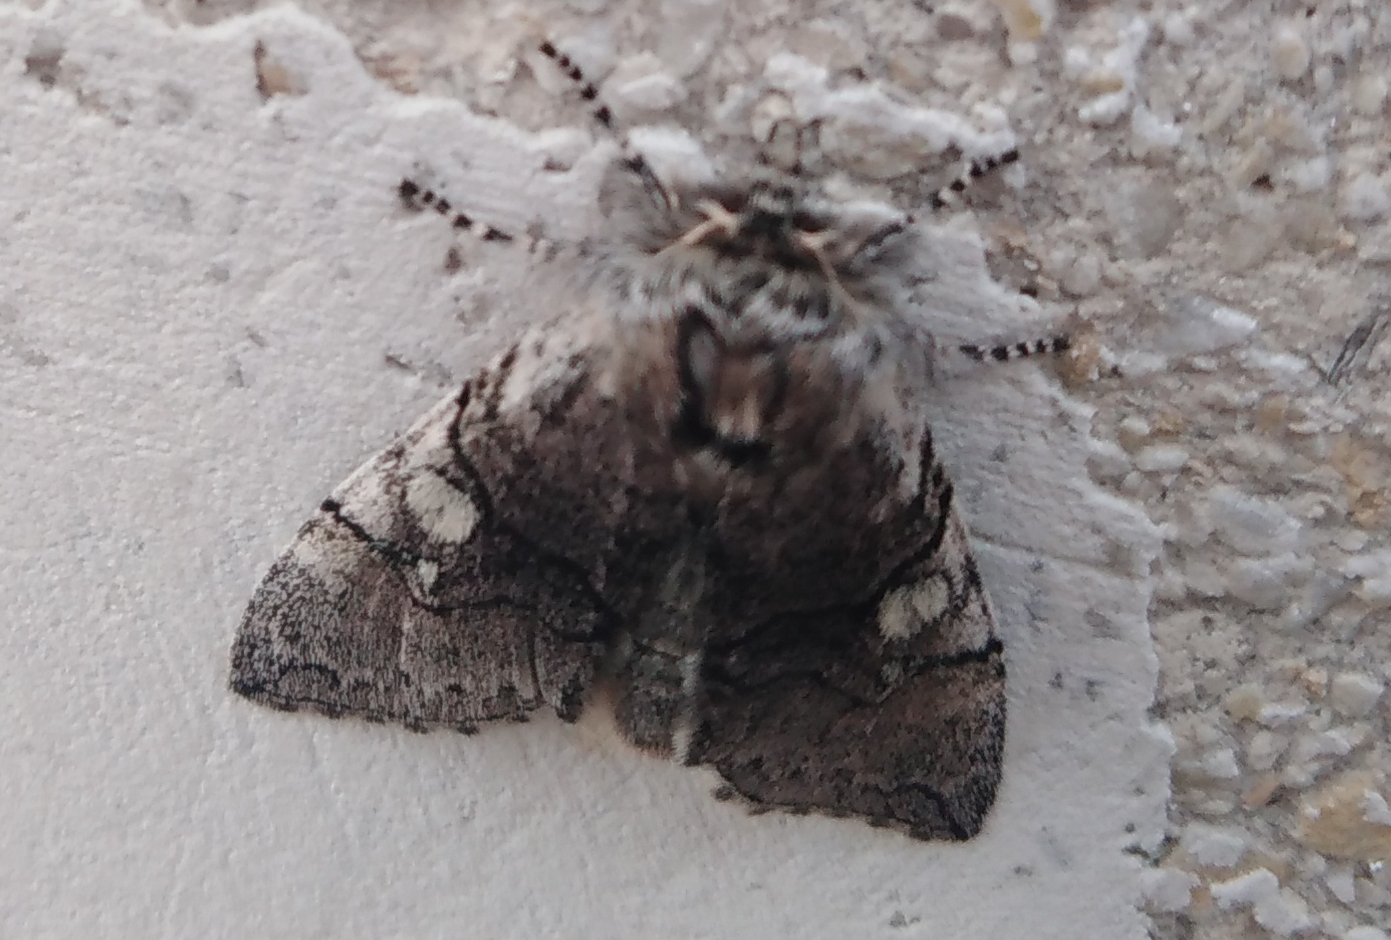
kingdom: Animalia
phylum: Arthropoda
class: Insecta
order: Lepidoptera
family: Drepanidae
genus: Achlya
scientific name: Achlya flavicornis
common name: Yellow horned
